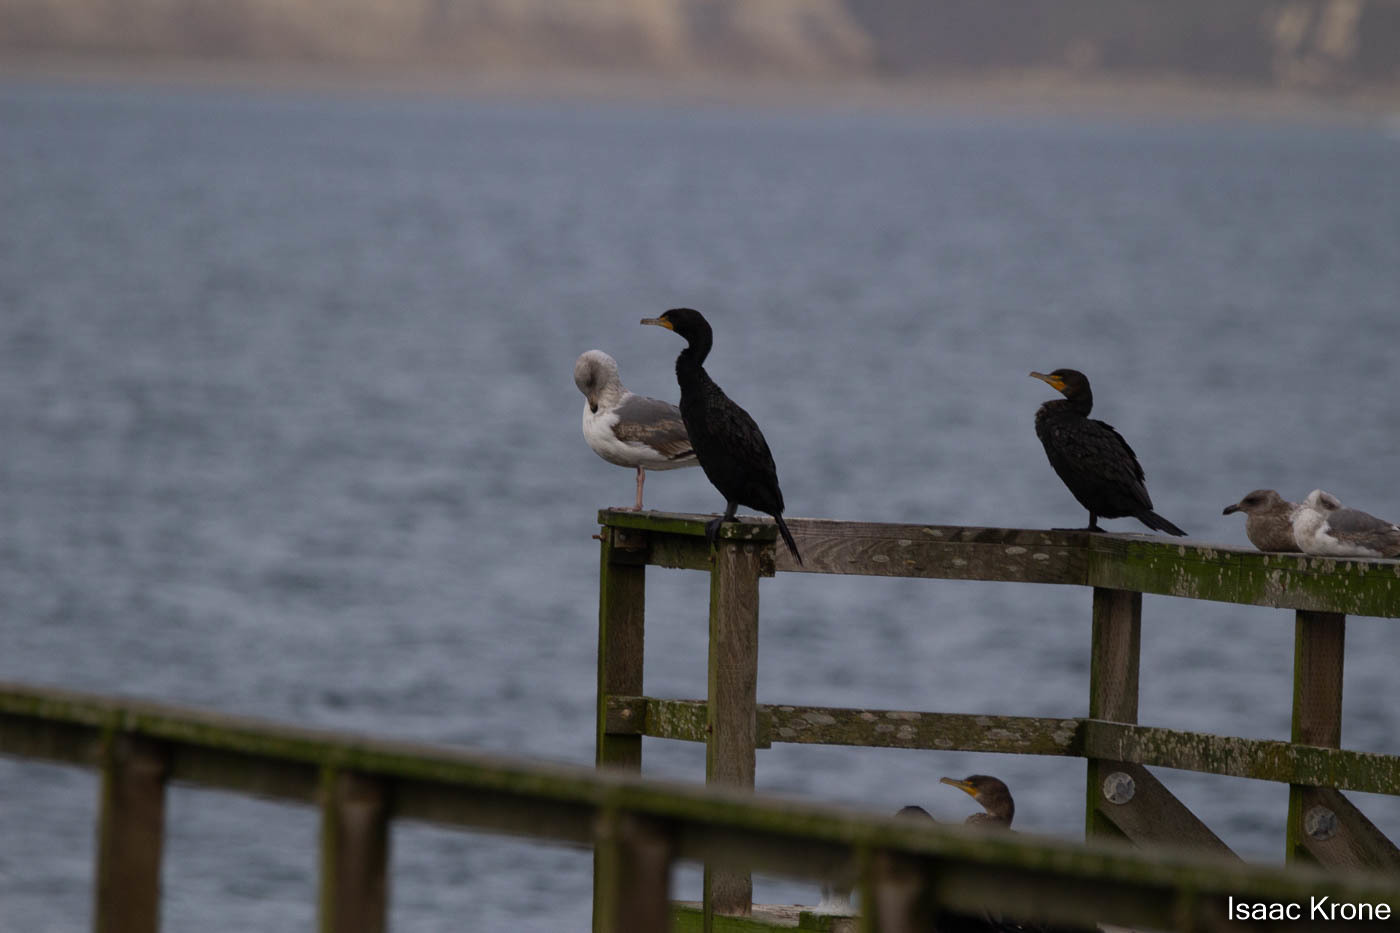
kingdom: Animalia
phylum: Chordata
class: Aves
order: Suliformes
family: Phalacrocoracidae
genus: Phalacrocorax
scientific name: Phalacrocorax auritus
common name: Double-crested cormorant
